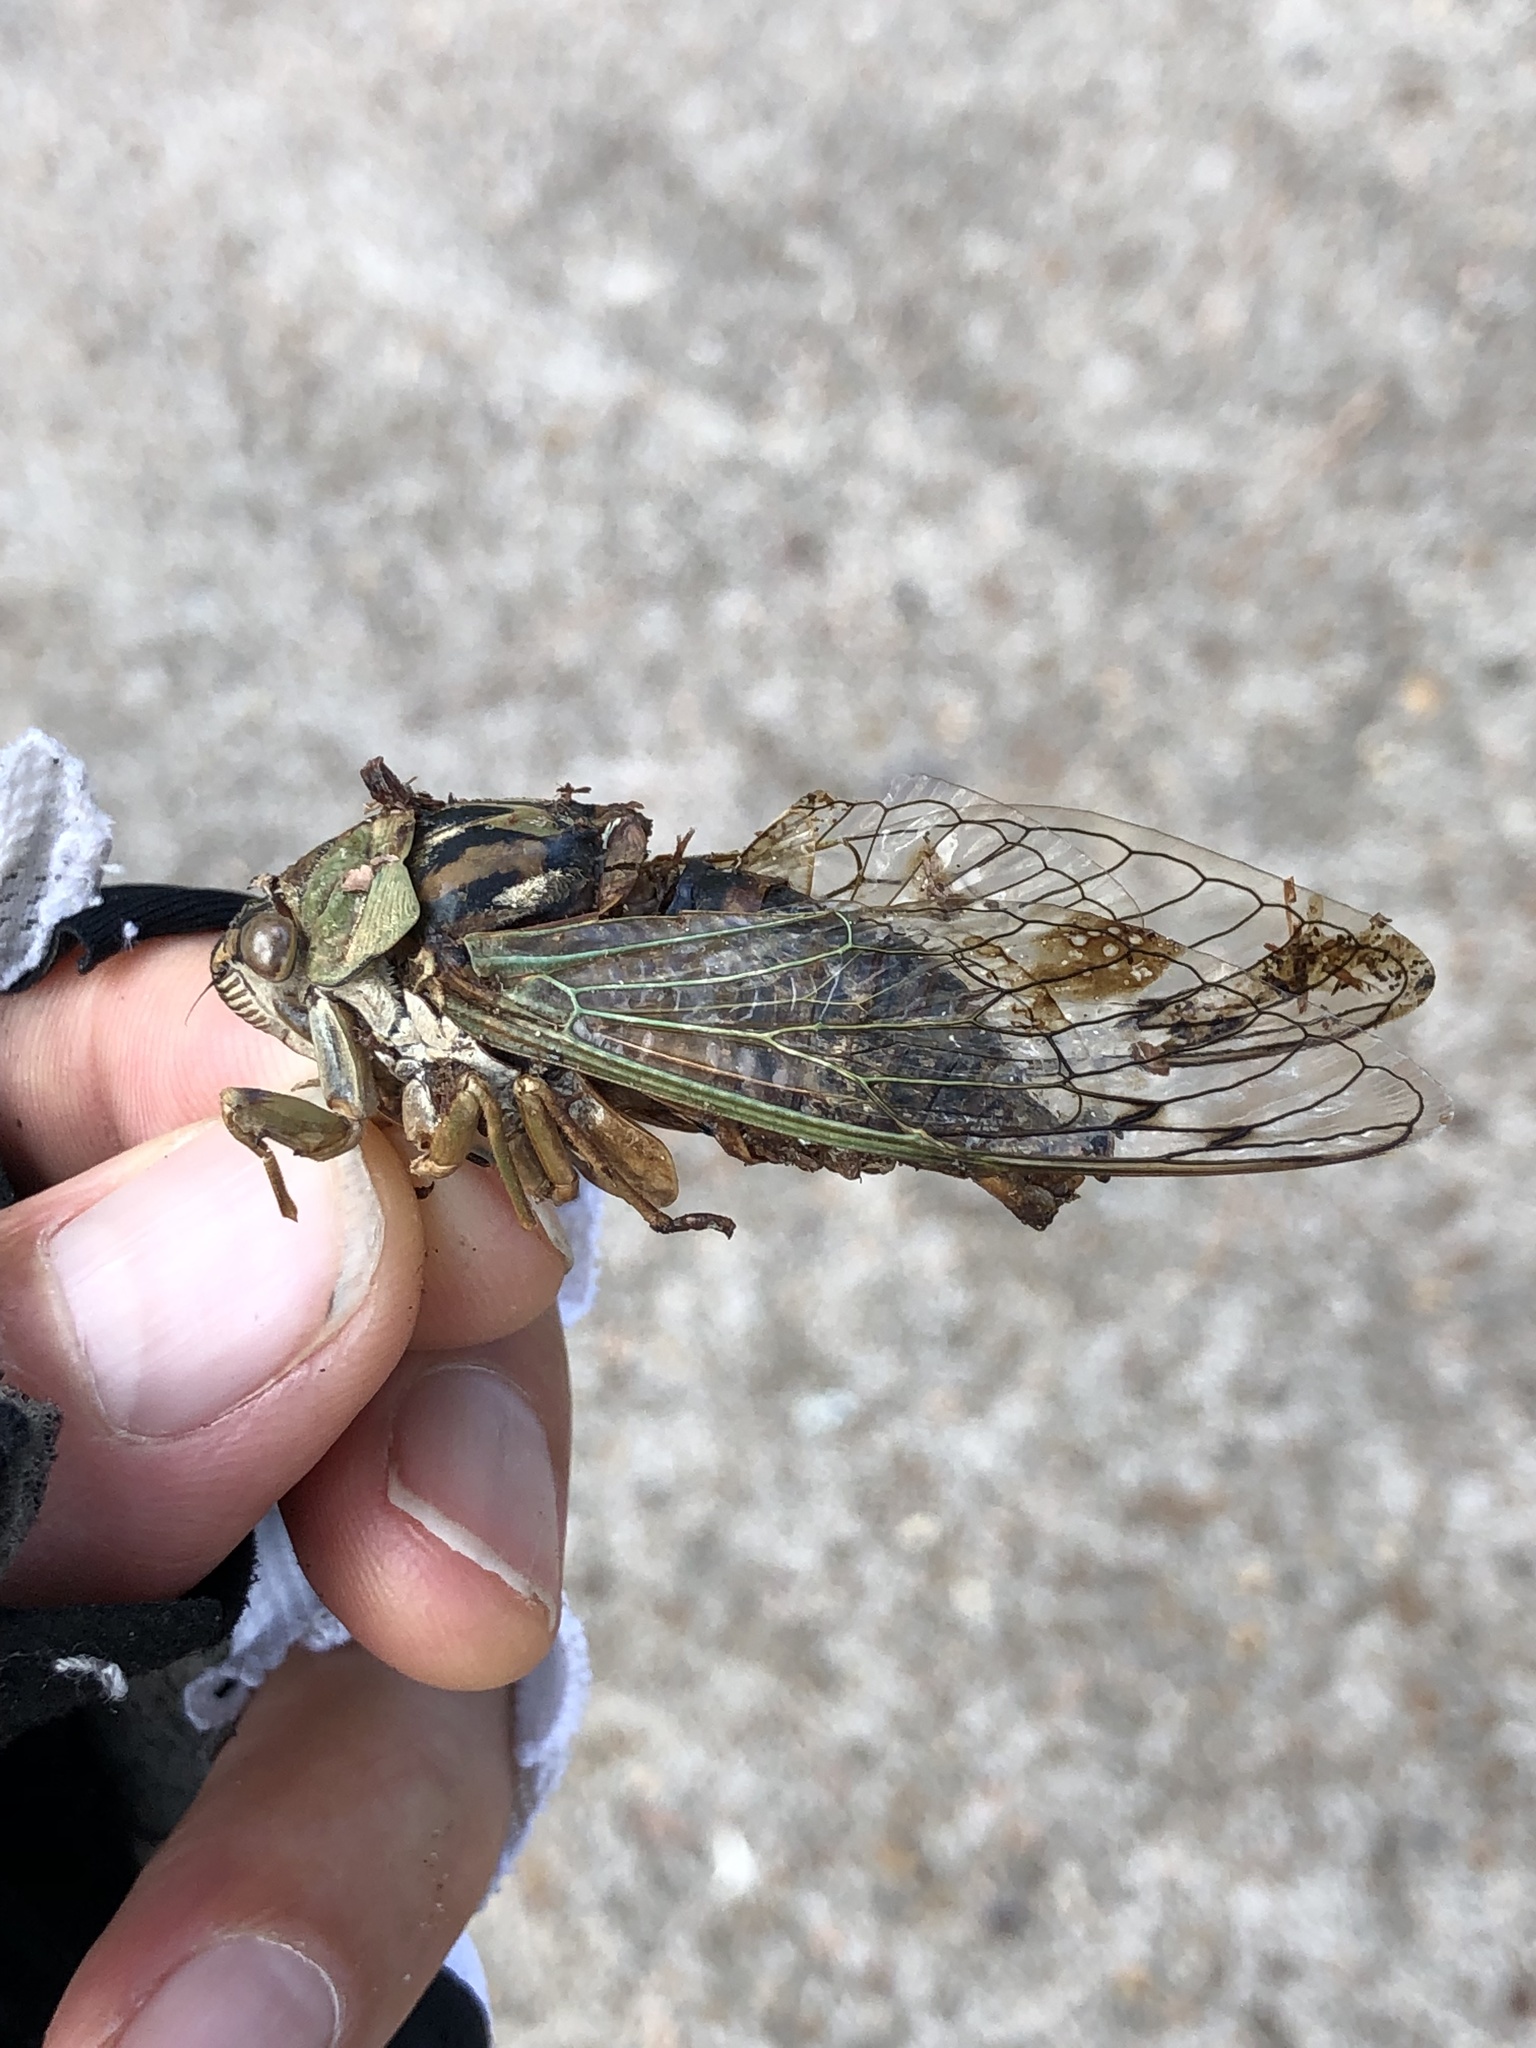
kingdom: Animalia
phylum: Arthropoda
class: Insecta
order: Hemiptera
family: Cicadidae
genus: Megatibicen
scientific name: Megatibicen resh
